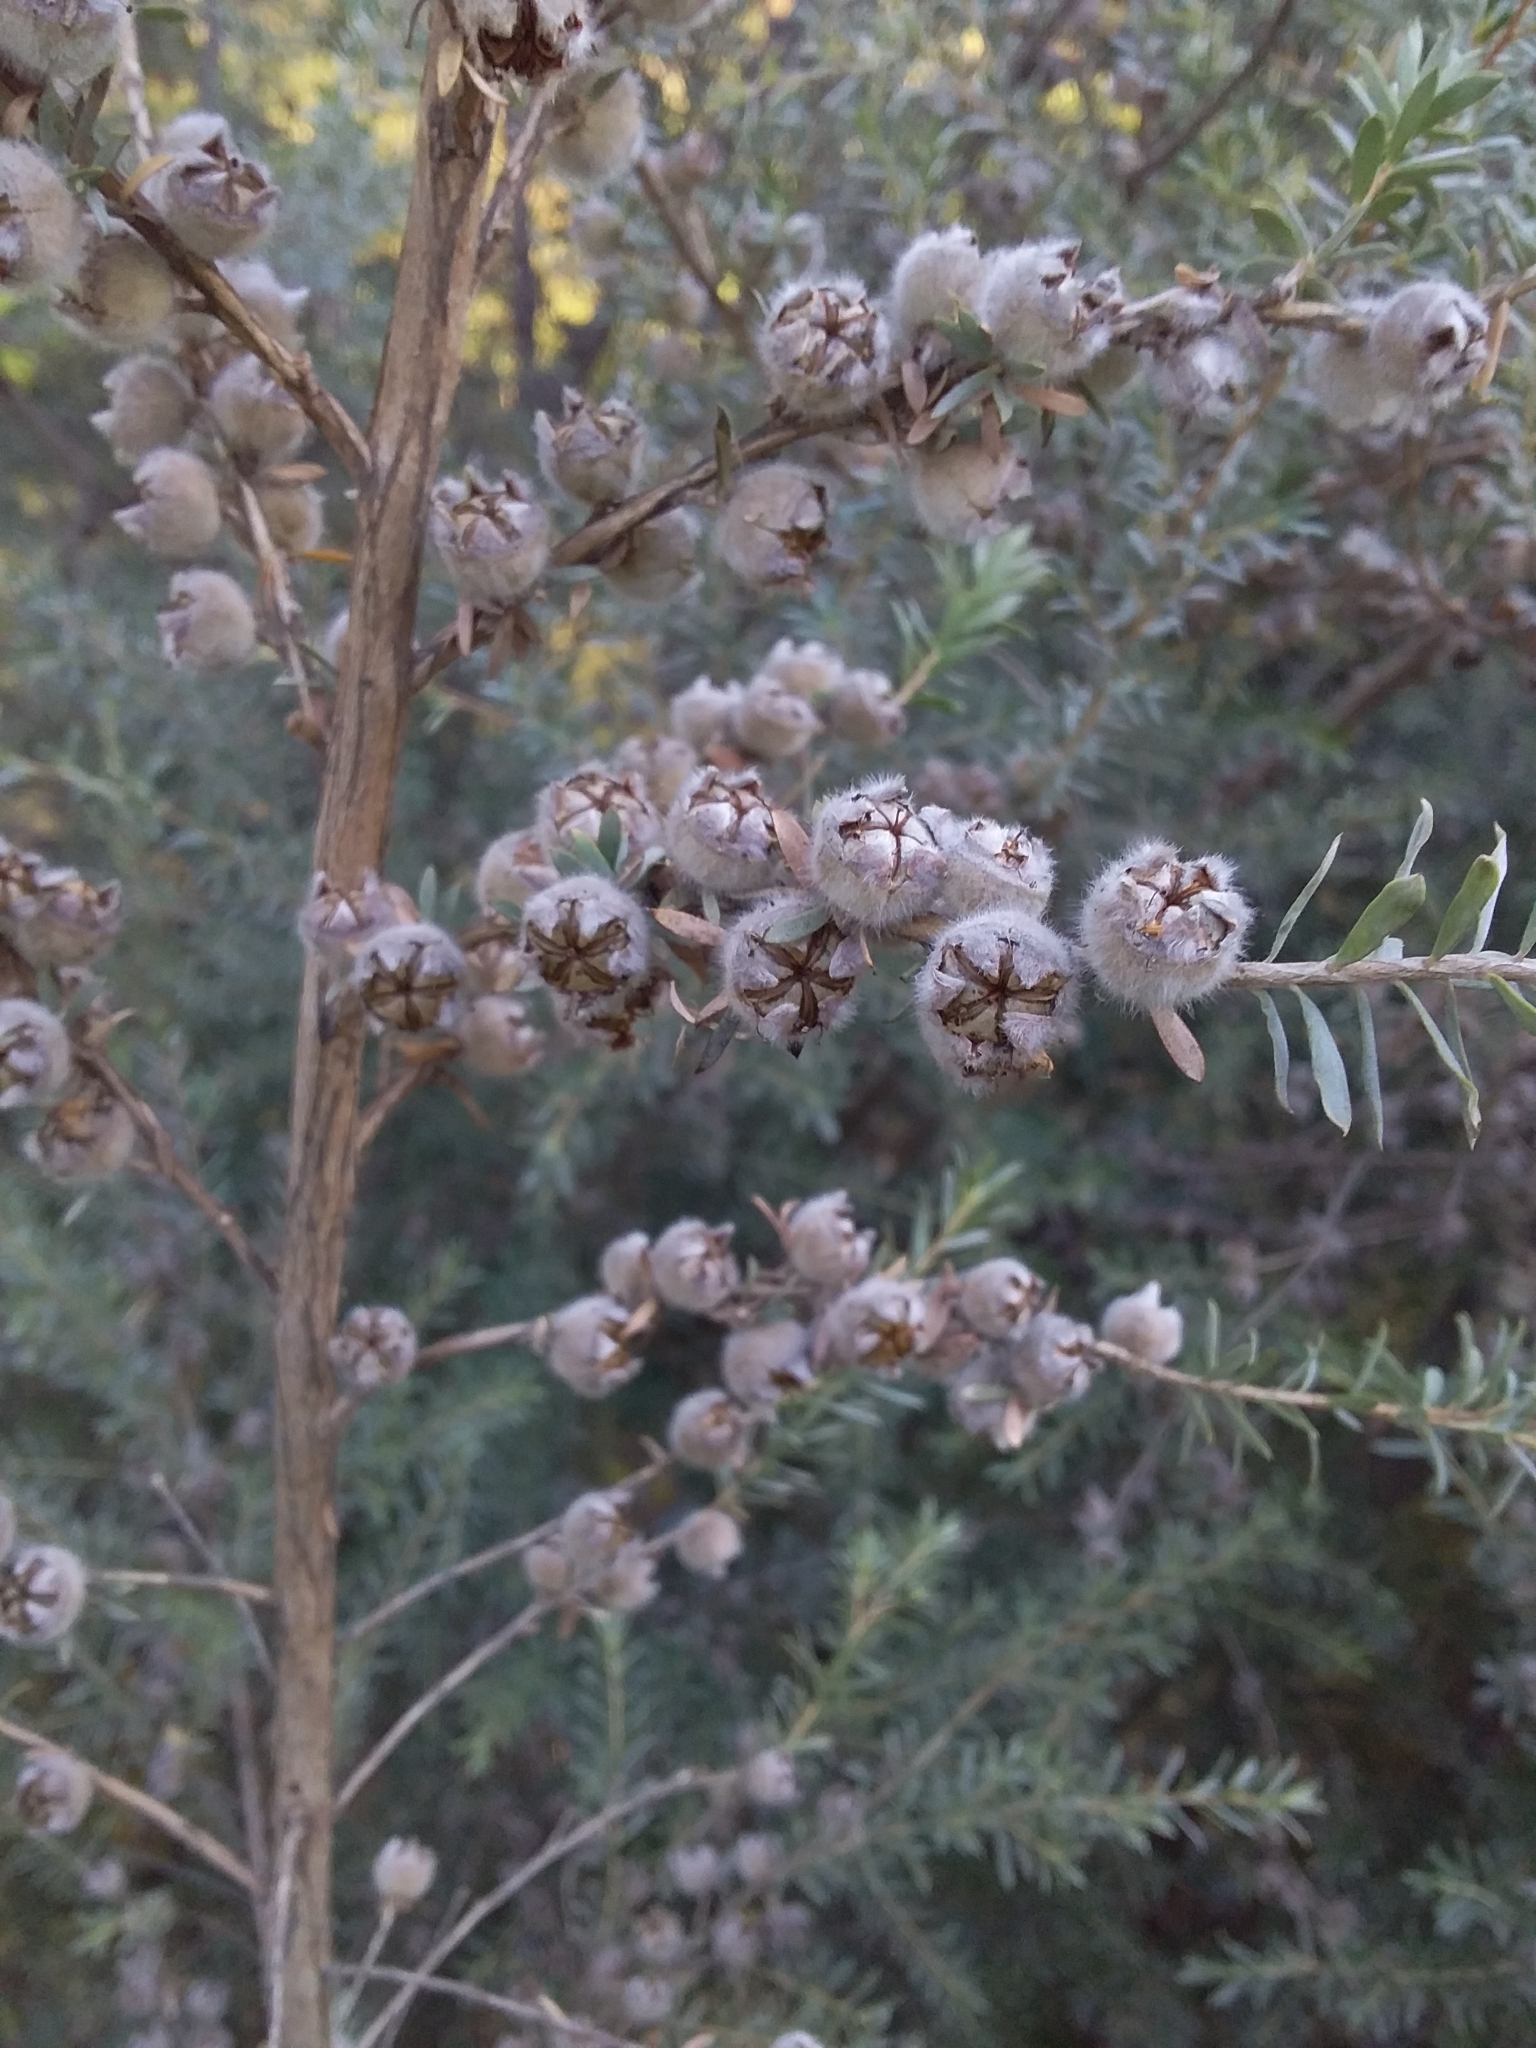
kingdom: Plantae
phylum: Tracheophyta
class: Magnoliopsida
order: Myrtales
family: Myrtaceae
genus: Leptospermum
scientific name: Leptospermum lanigerum
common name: Woolly tea-tree
